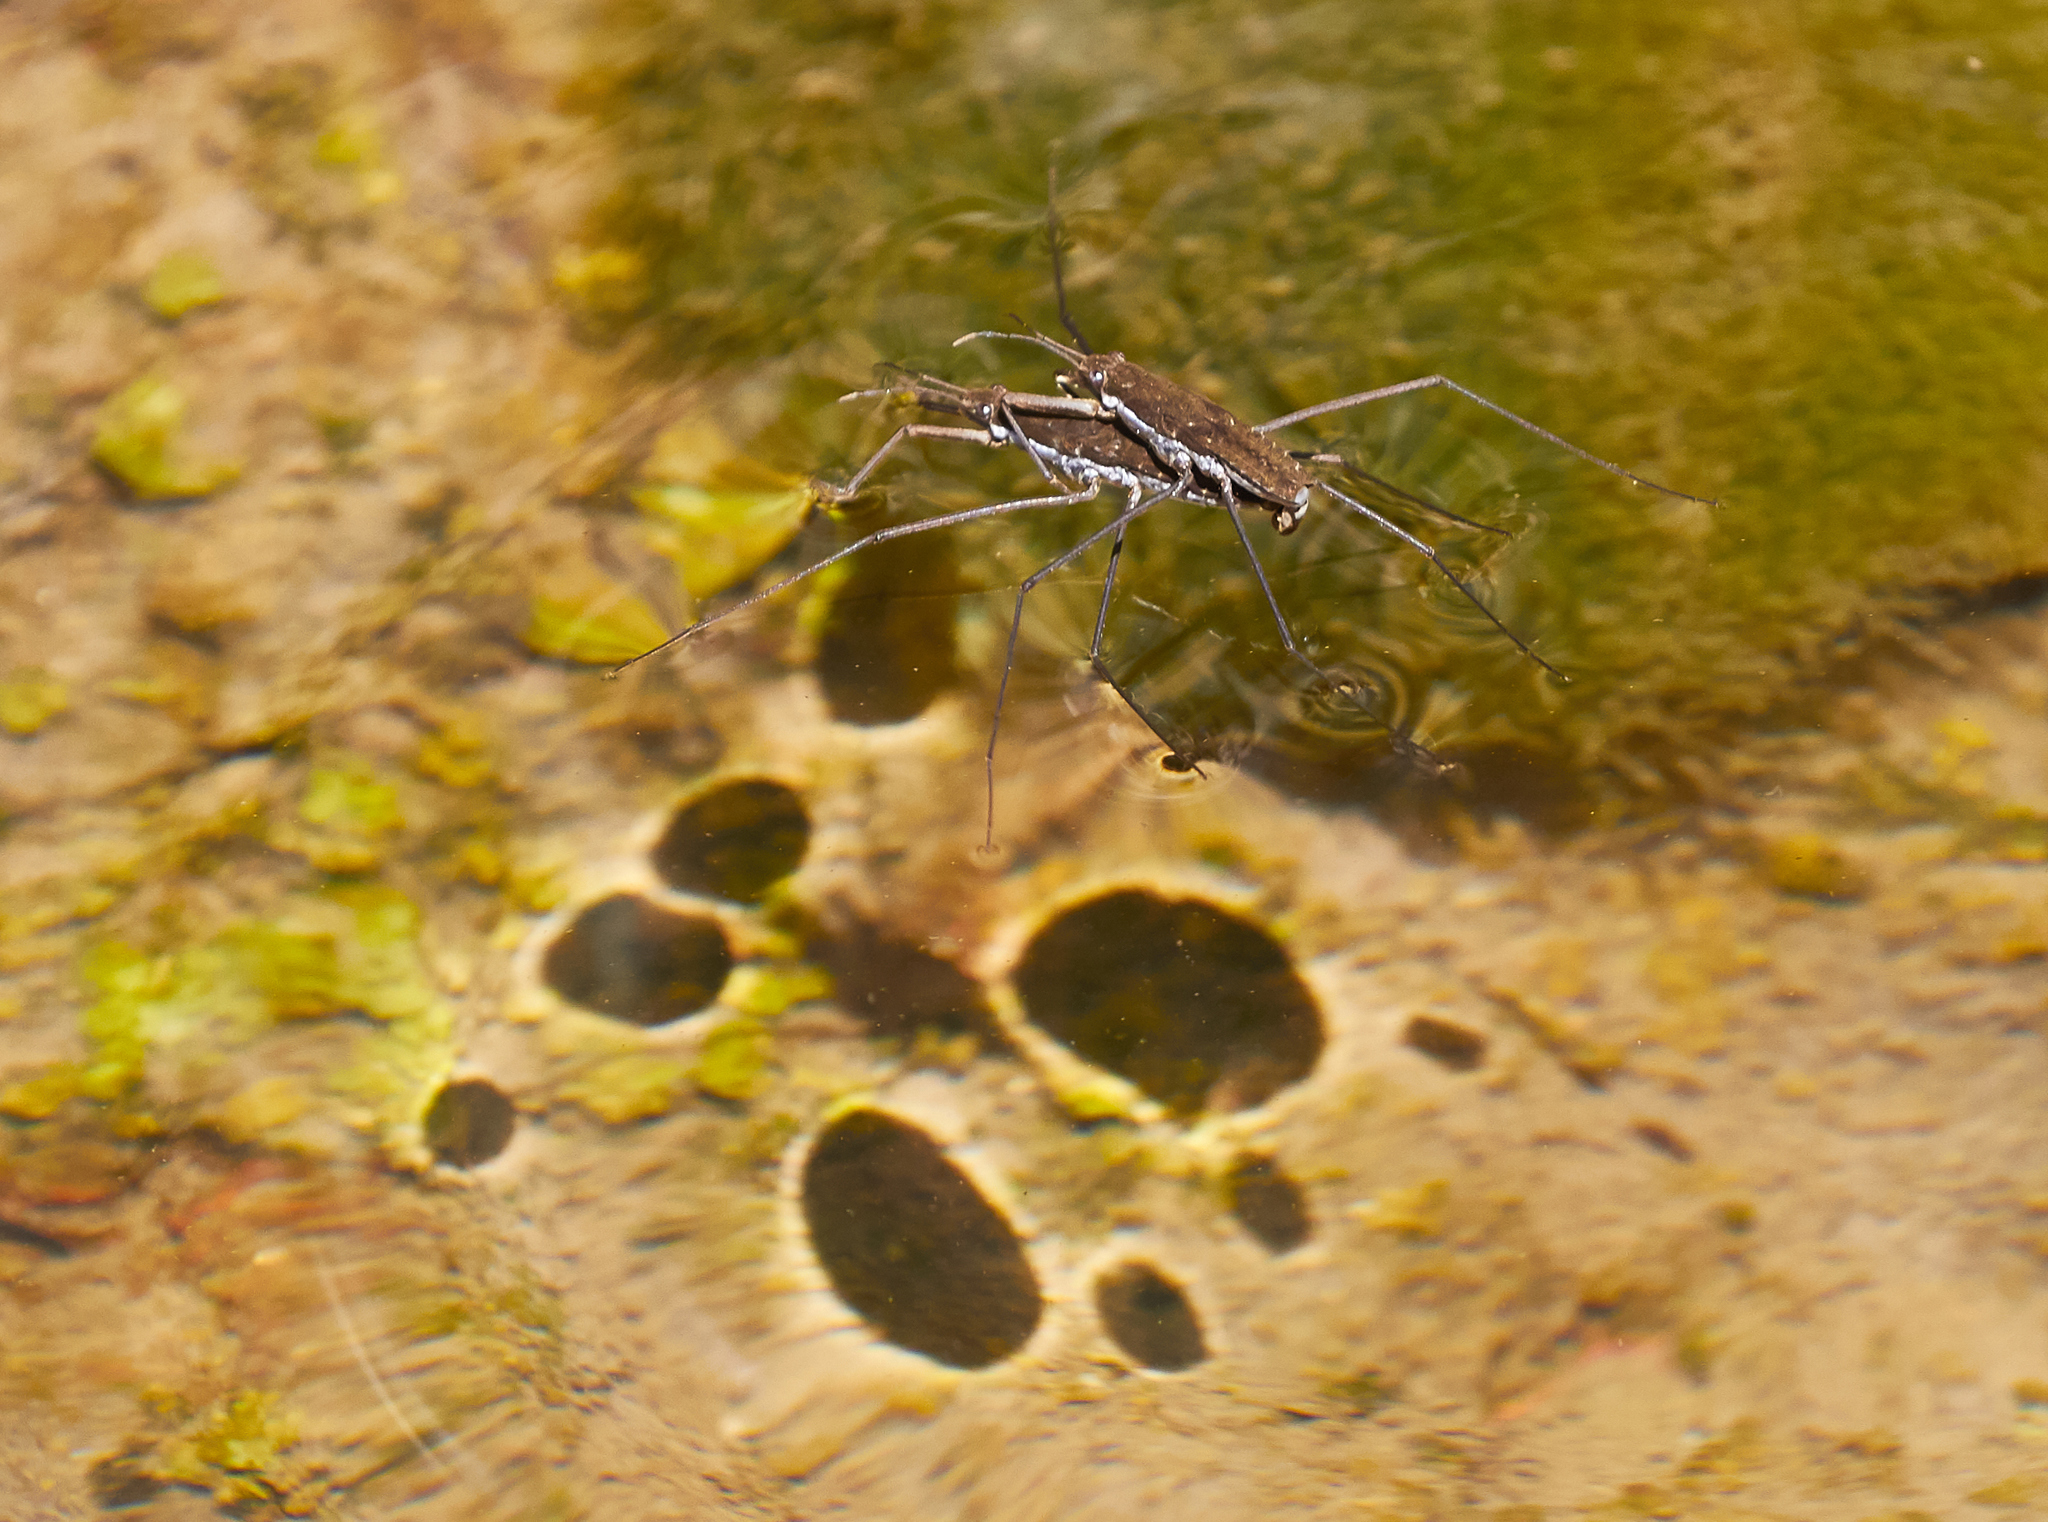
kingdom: Animalia
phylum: Arthropoda
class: Insecta
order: Hemiptera
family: Gerridae
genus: Aquarius
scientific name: Aquarius remigis
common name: Common water strider
